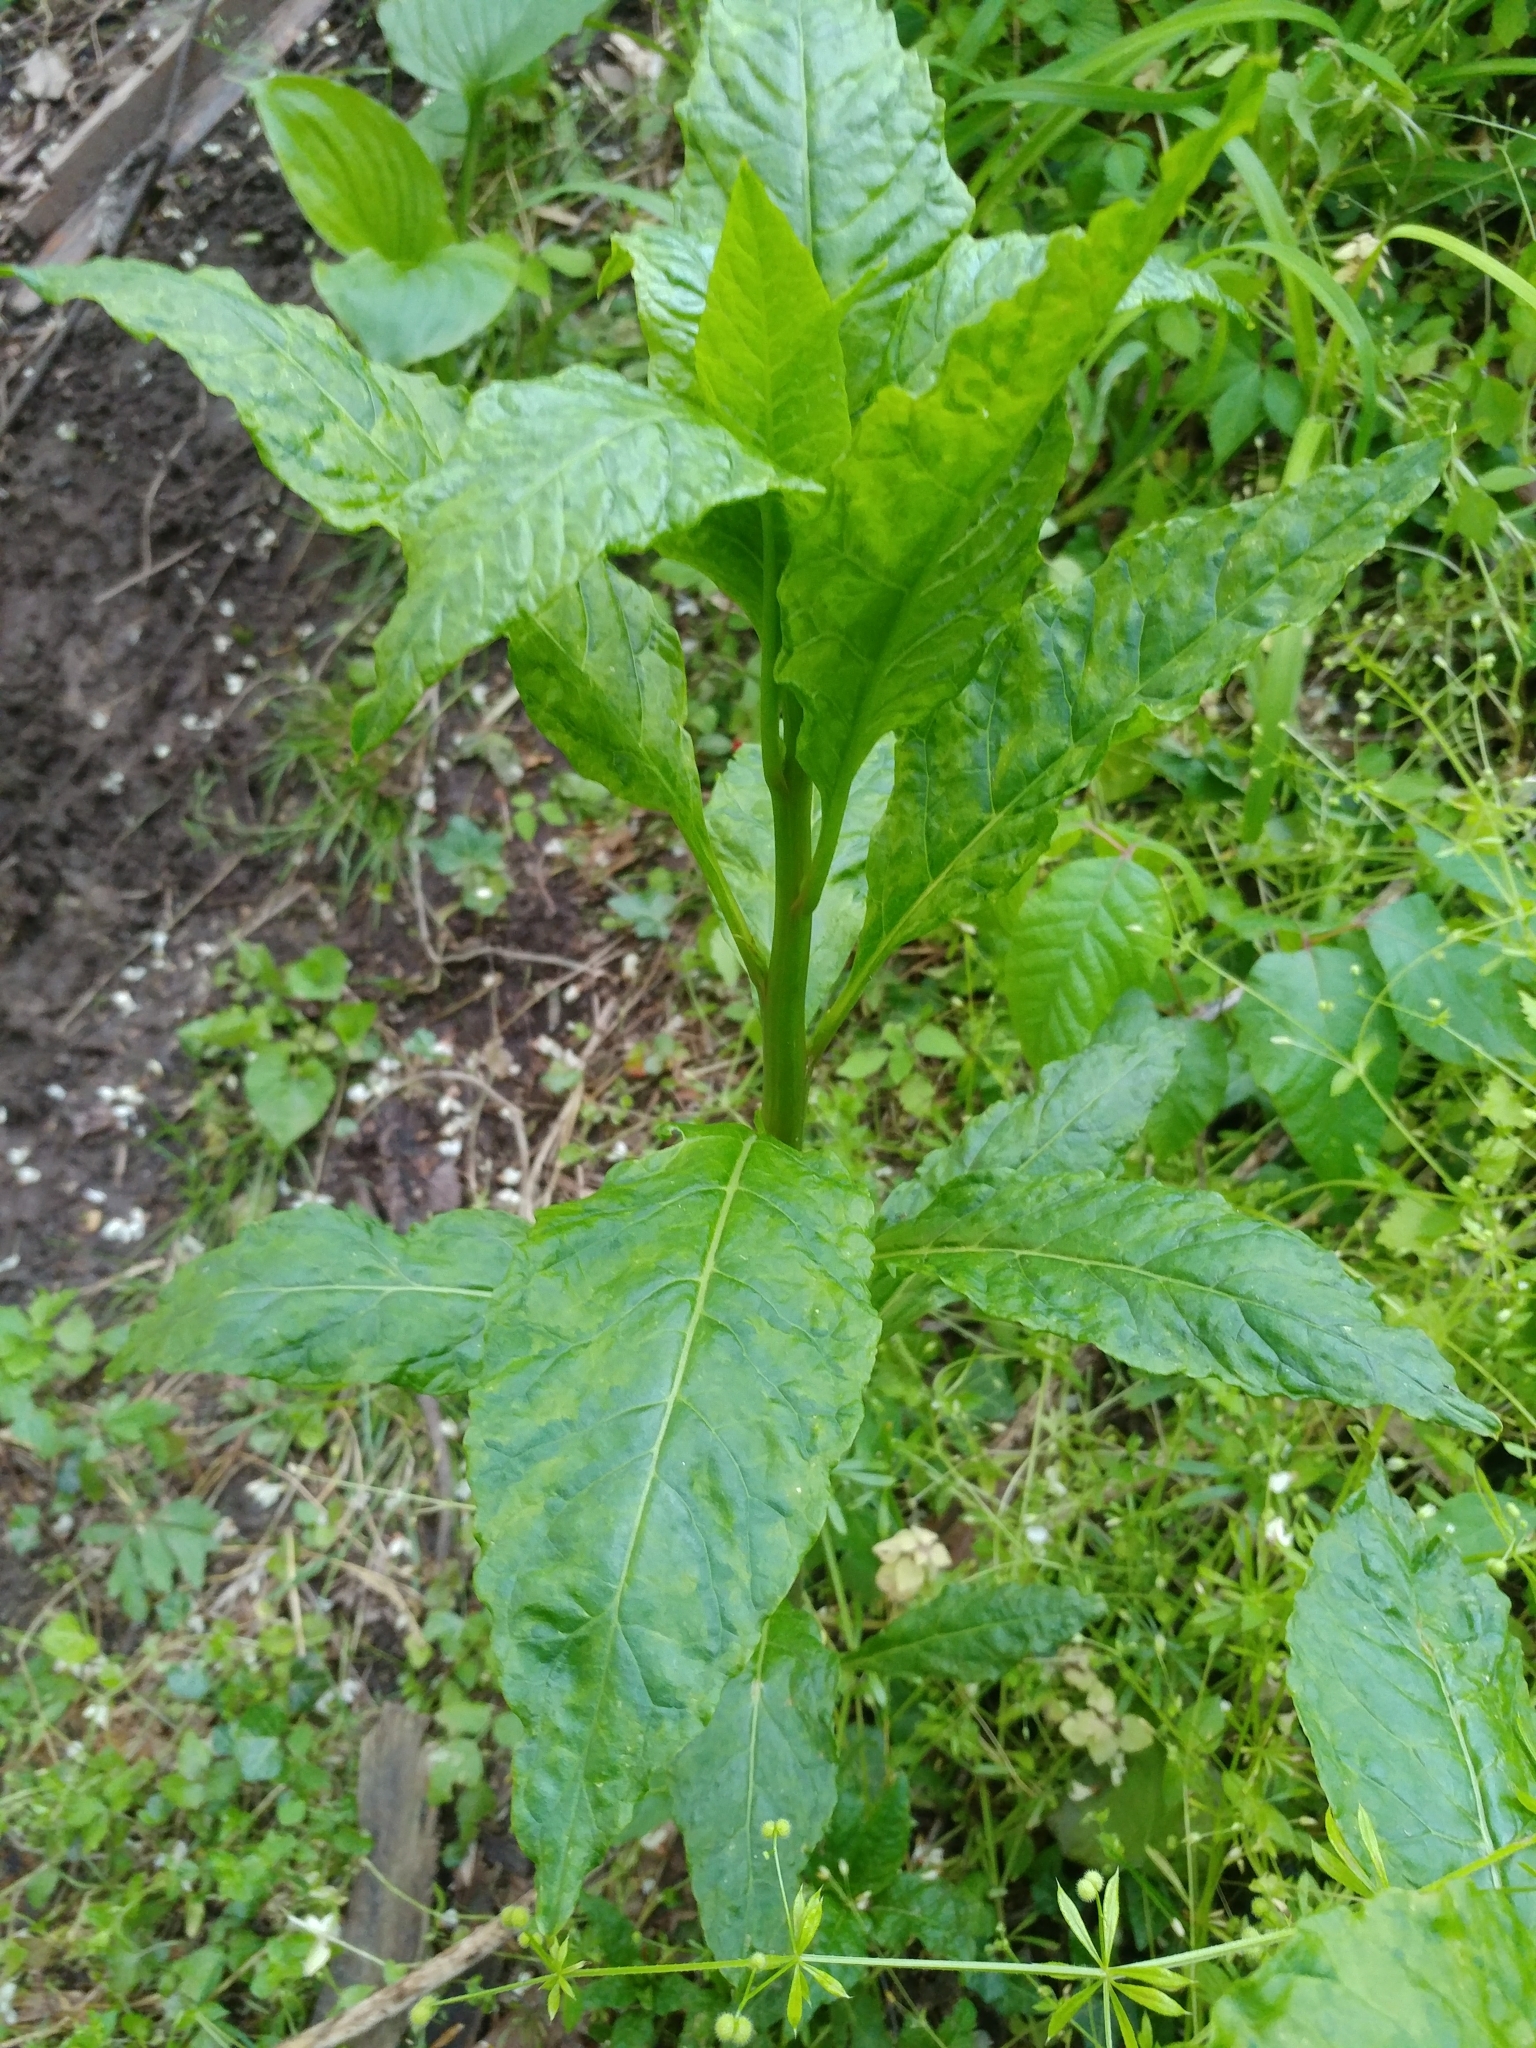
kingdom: Plantae
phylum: Tracheophyta
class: Magnoliopsida
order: Caryophyllales
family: Phytolaccaceae
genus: Phytolacca
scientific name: Phytolacca americana
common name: American pokeweed
